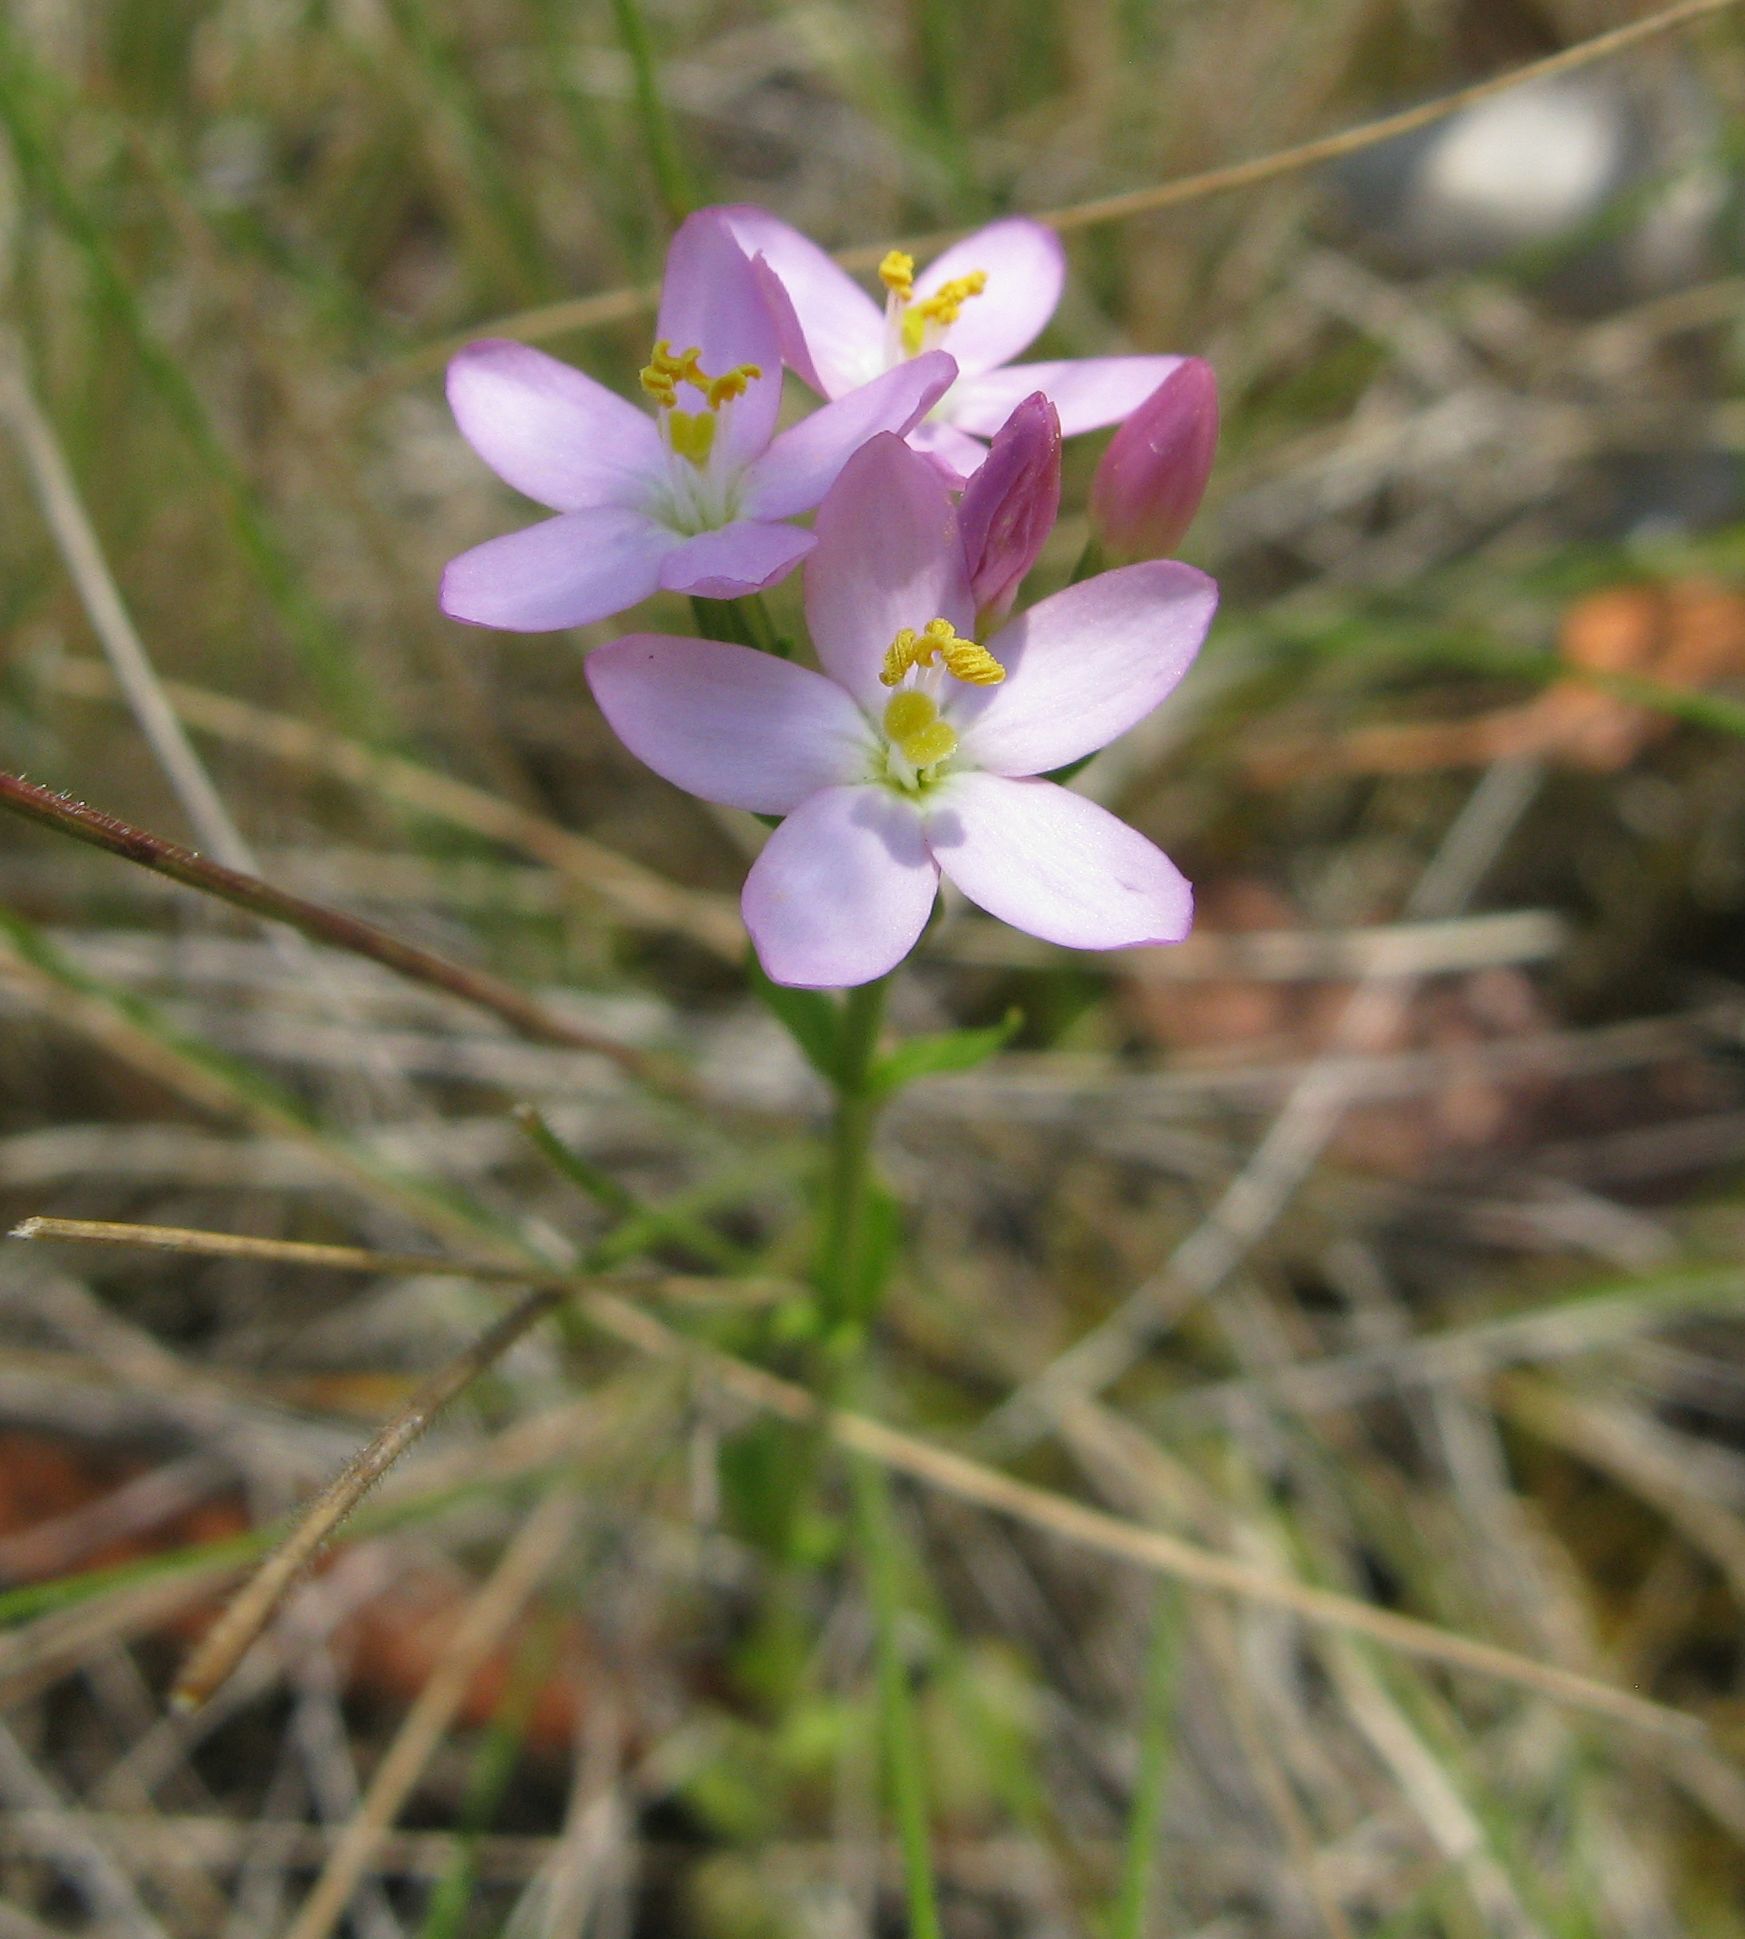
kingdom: Plantae
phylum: Tracheophyta
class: Magnoliopsida
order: Gentianales
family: Gentianaceae
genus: Centaurium
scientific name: Centaurium erythraea
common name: Common centaury
